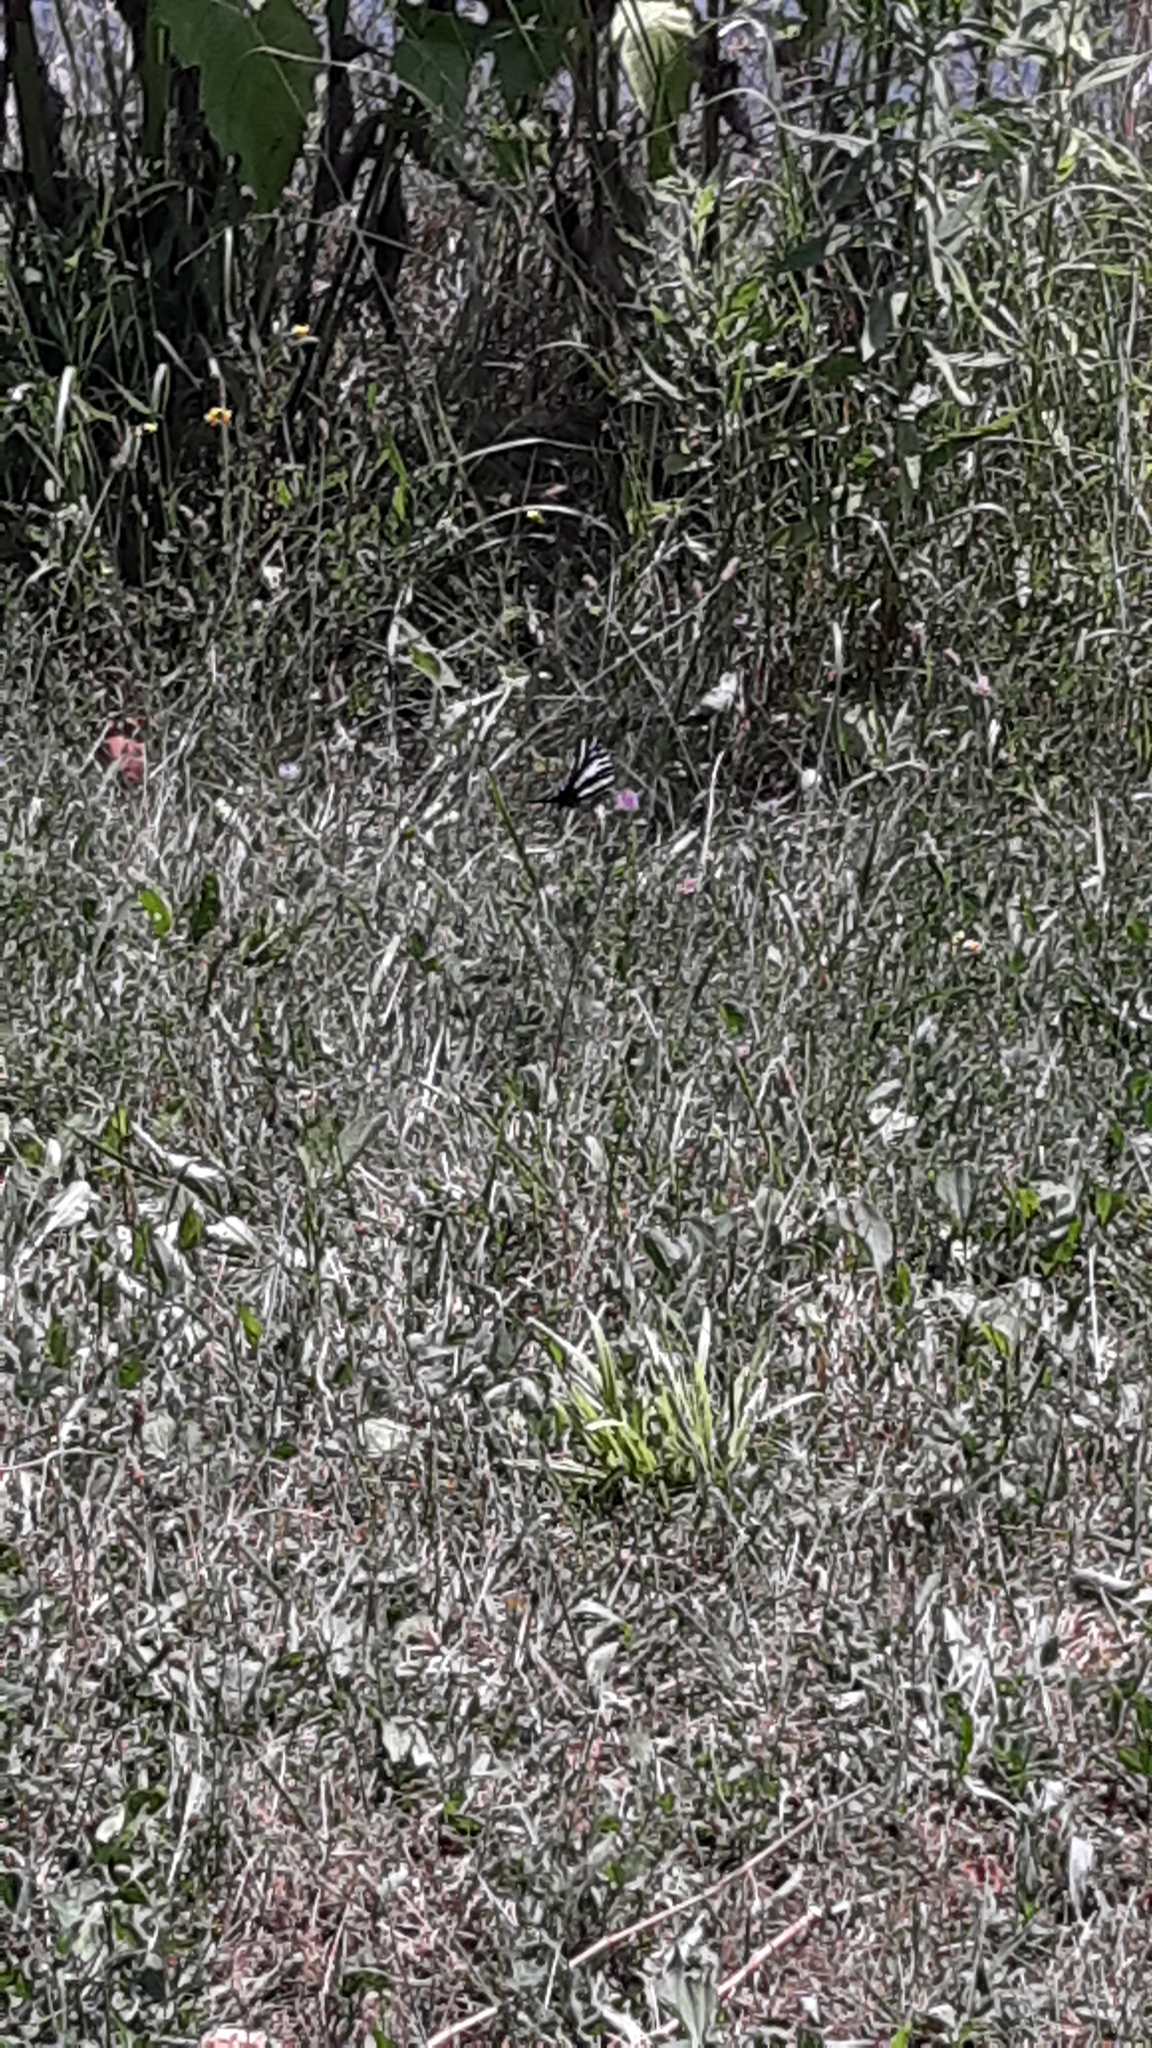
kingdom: Animalia
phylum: Arthropoda
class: Insecta
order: Lepidoptera
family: Papilionidae
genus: Protographium
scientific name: Protographium marcellus
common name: Zebra swallowtail
